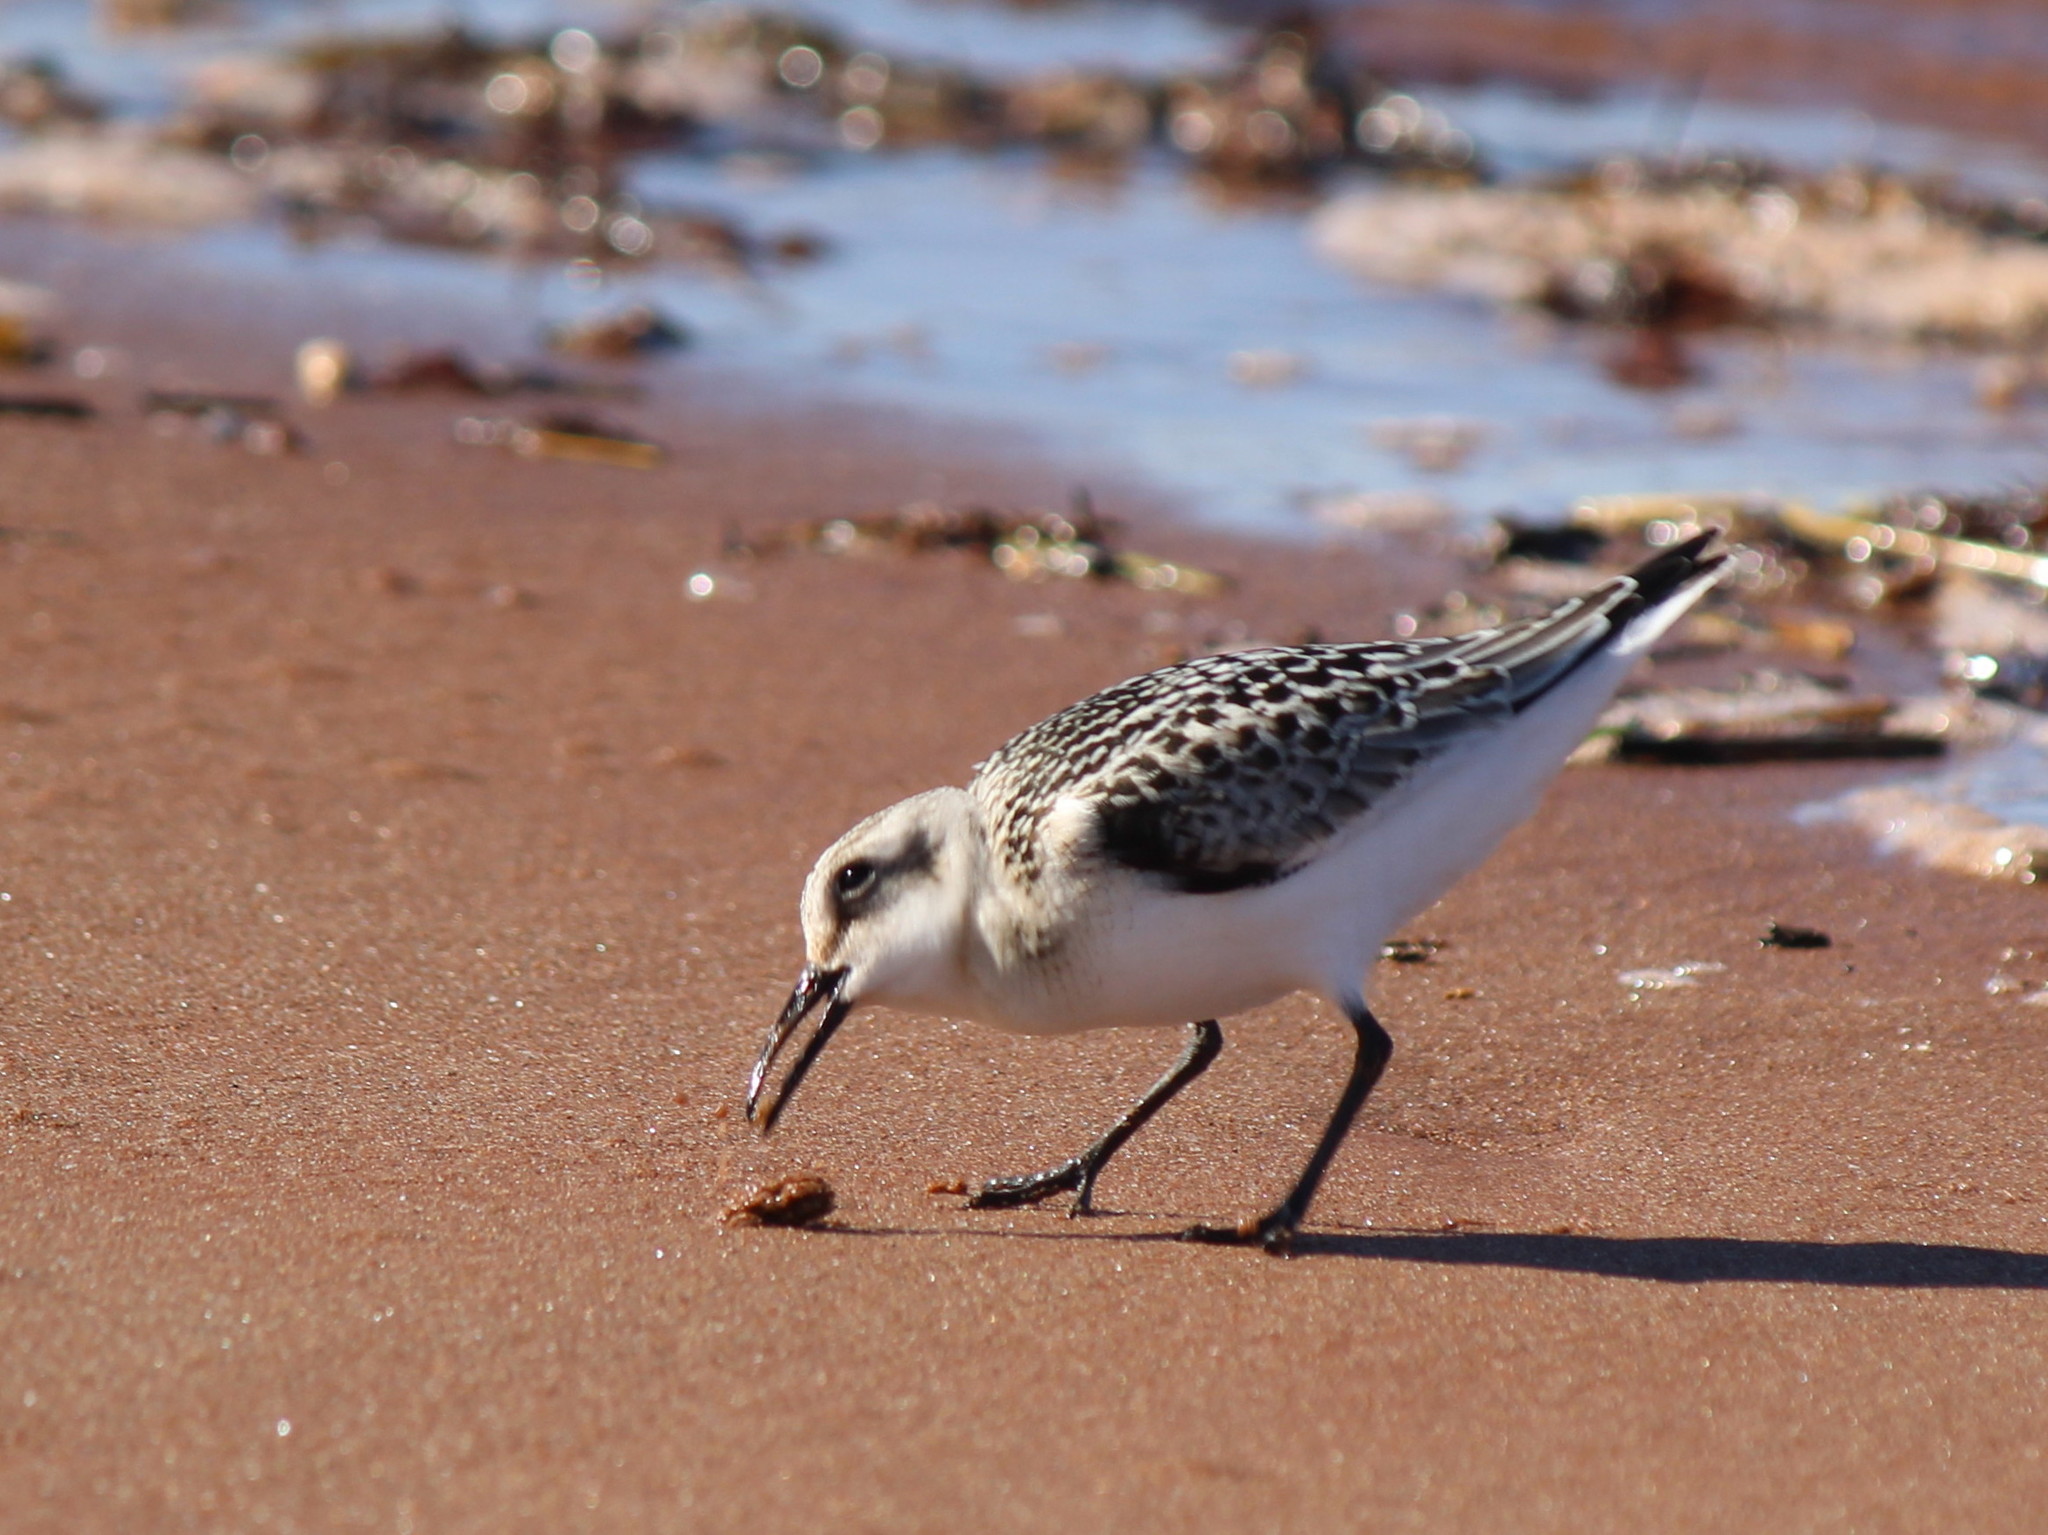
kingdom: Animalia
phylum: Chordata
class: Aves
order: Charadriiformes
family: Scolopacidae
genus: Calidris
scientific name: Calidris alba
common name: Sanderling
